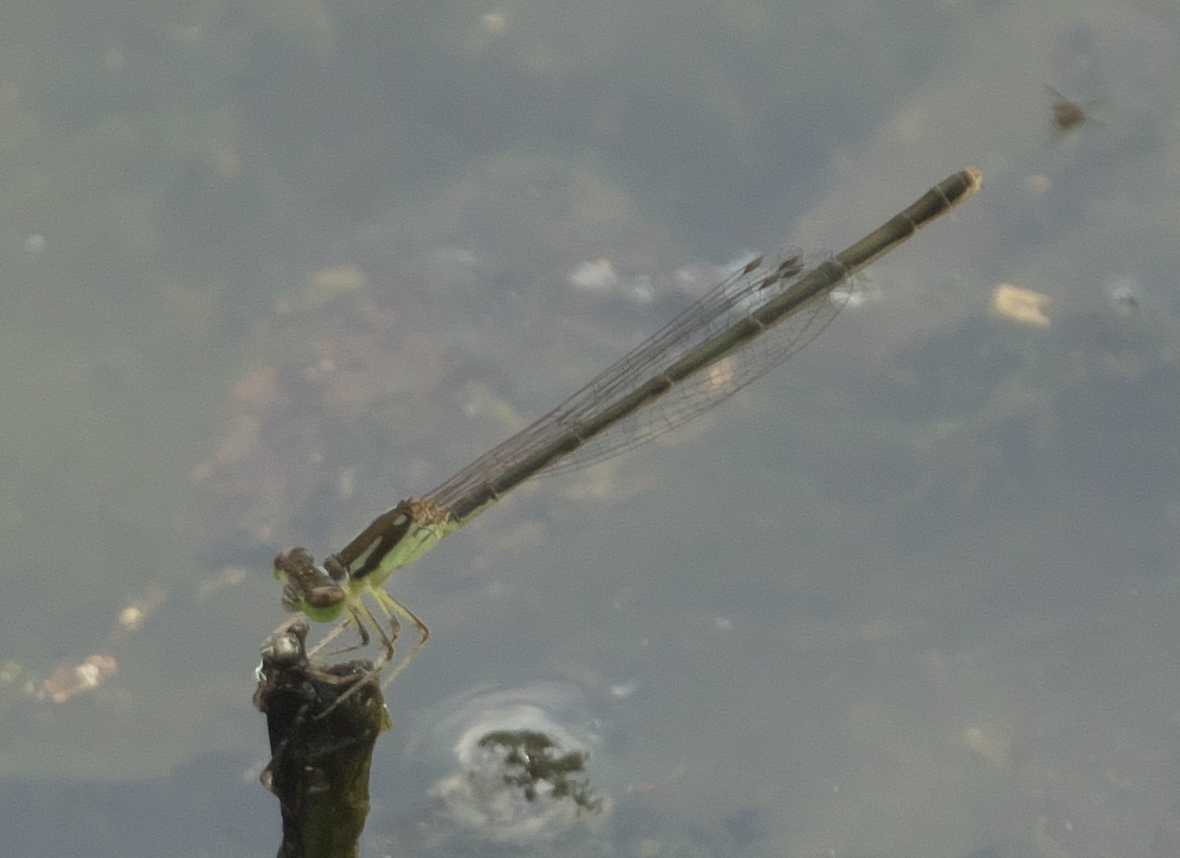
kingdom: Animalia
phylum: Arthropoda
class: Insecta
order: Odonata
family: Coenagrionidae
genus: Ischnura
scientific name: Ischnura posita
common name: Fragile forktail
